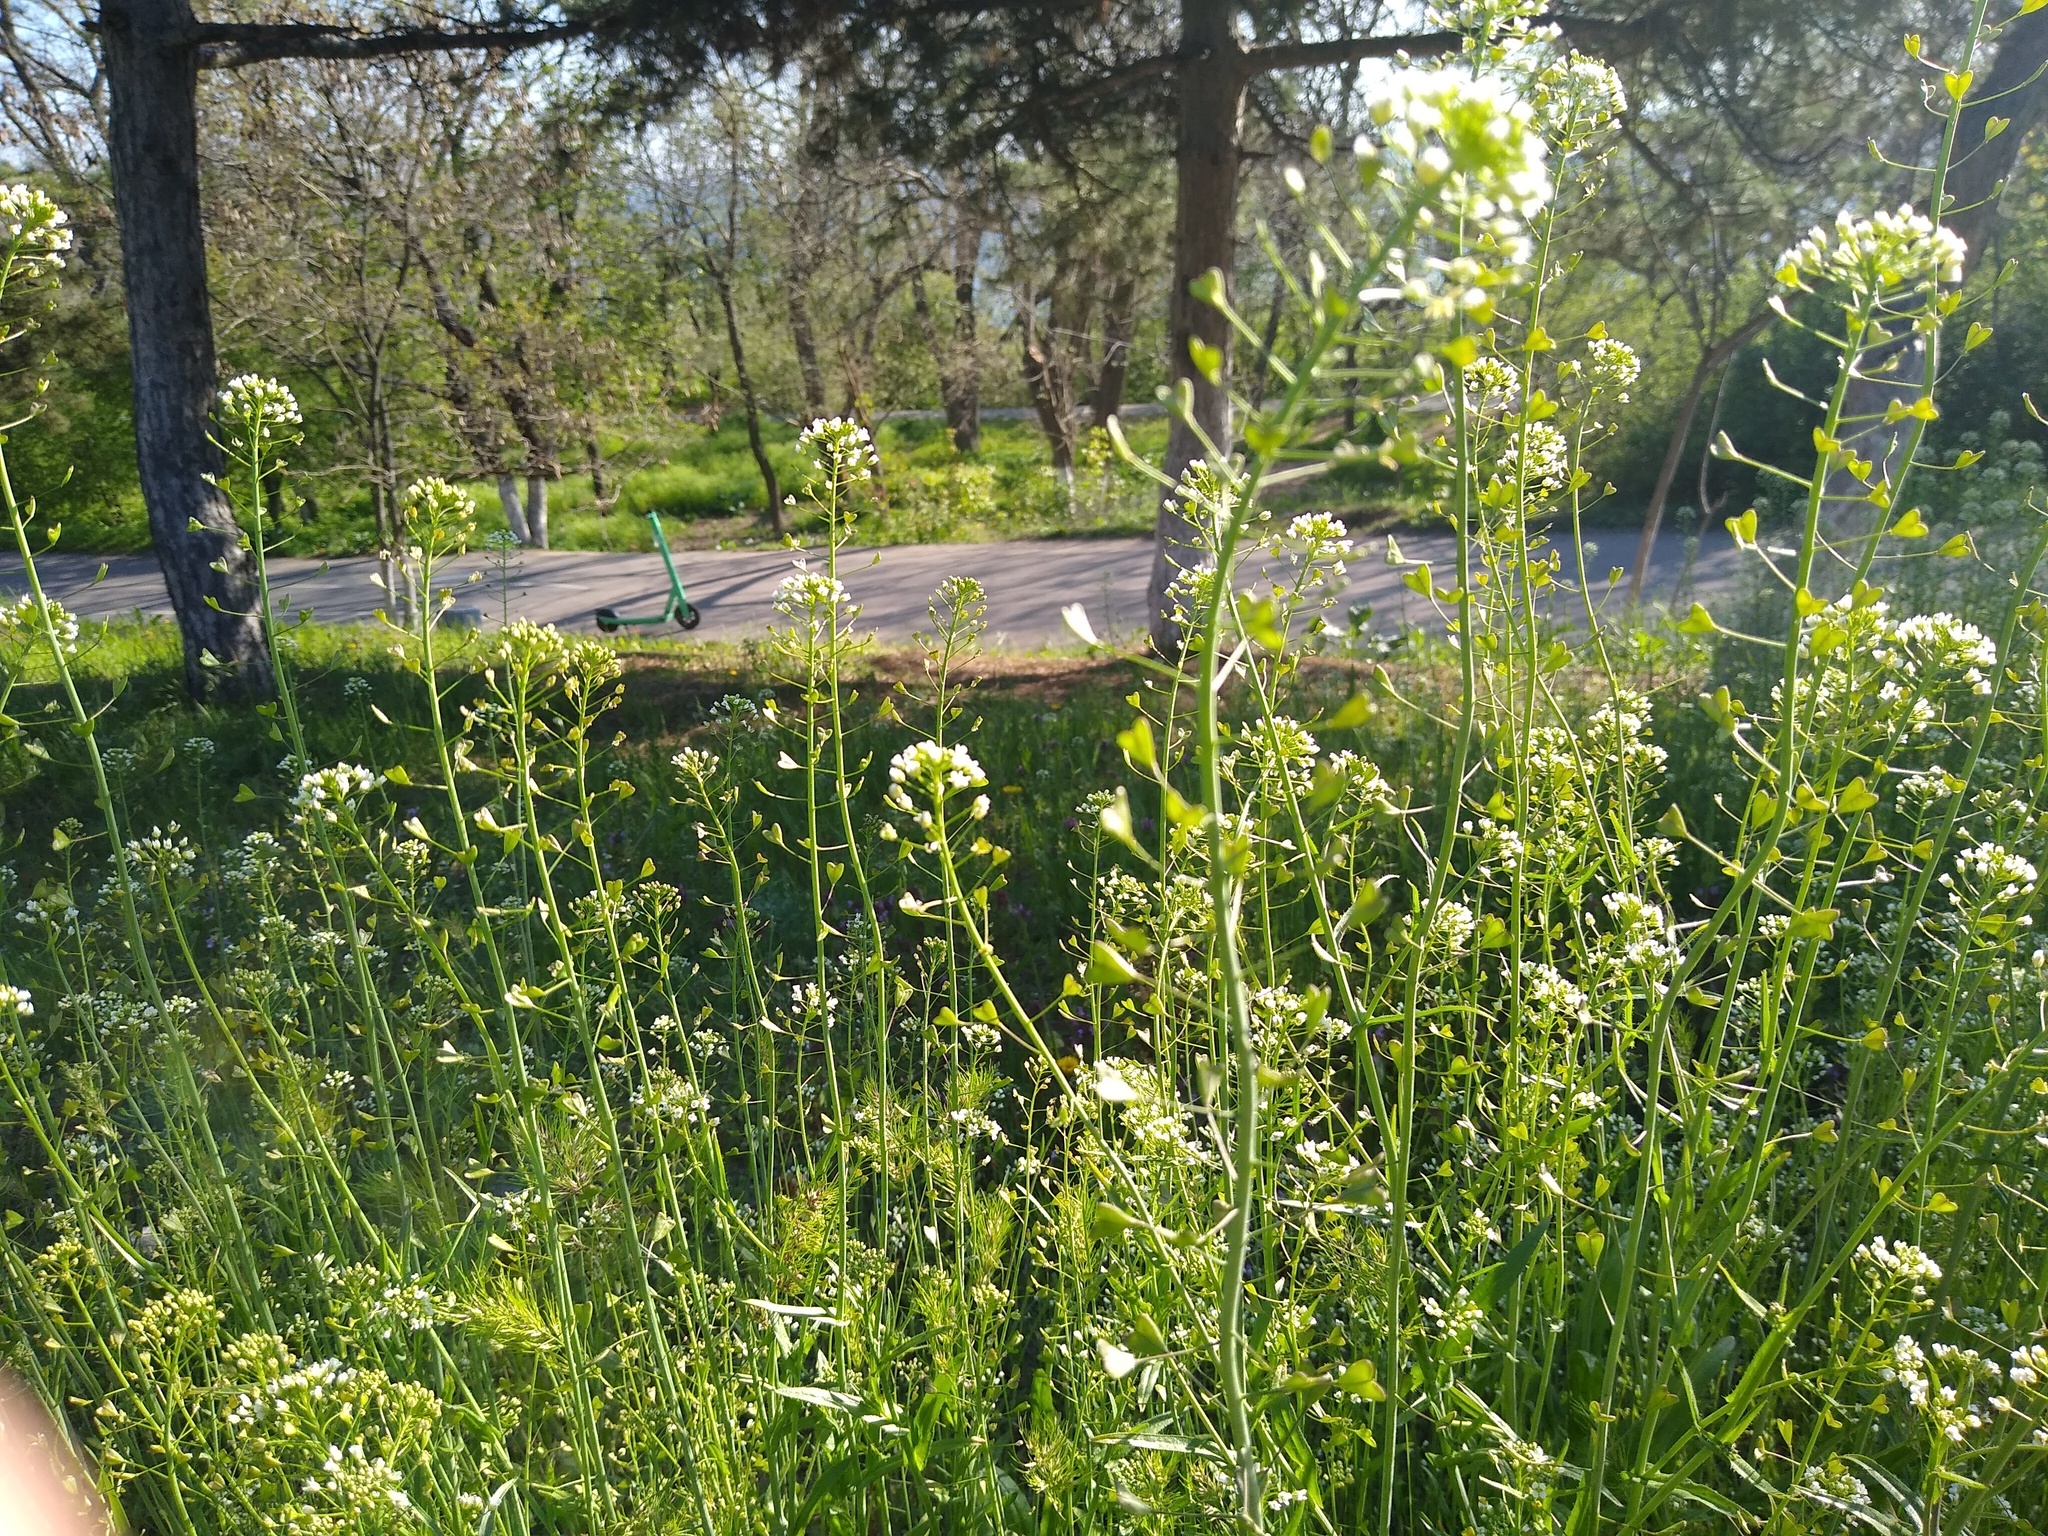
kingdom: Plantae
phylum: Tracheophyta
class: Magnoliopsida
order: Brassicales
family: Brassicaceae
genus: Capsella
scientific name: Capsella bursa-pastoris
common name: Shepherd's purse
